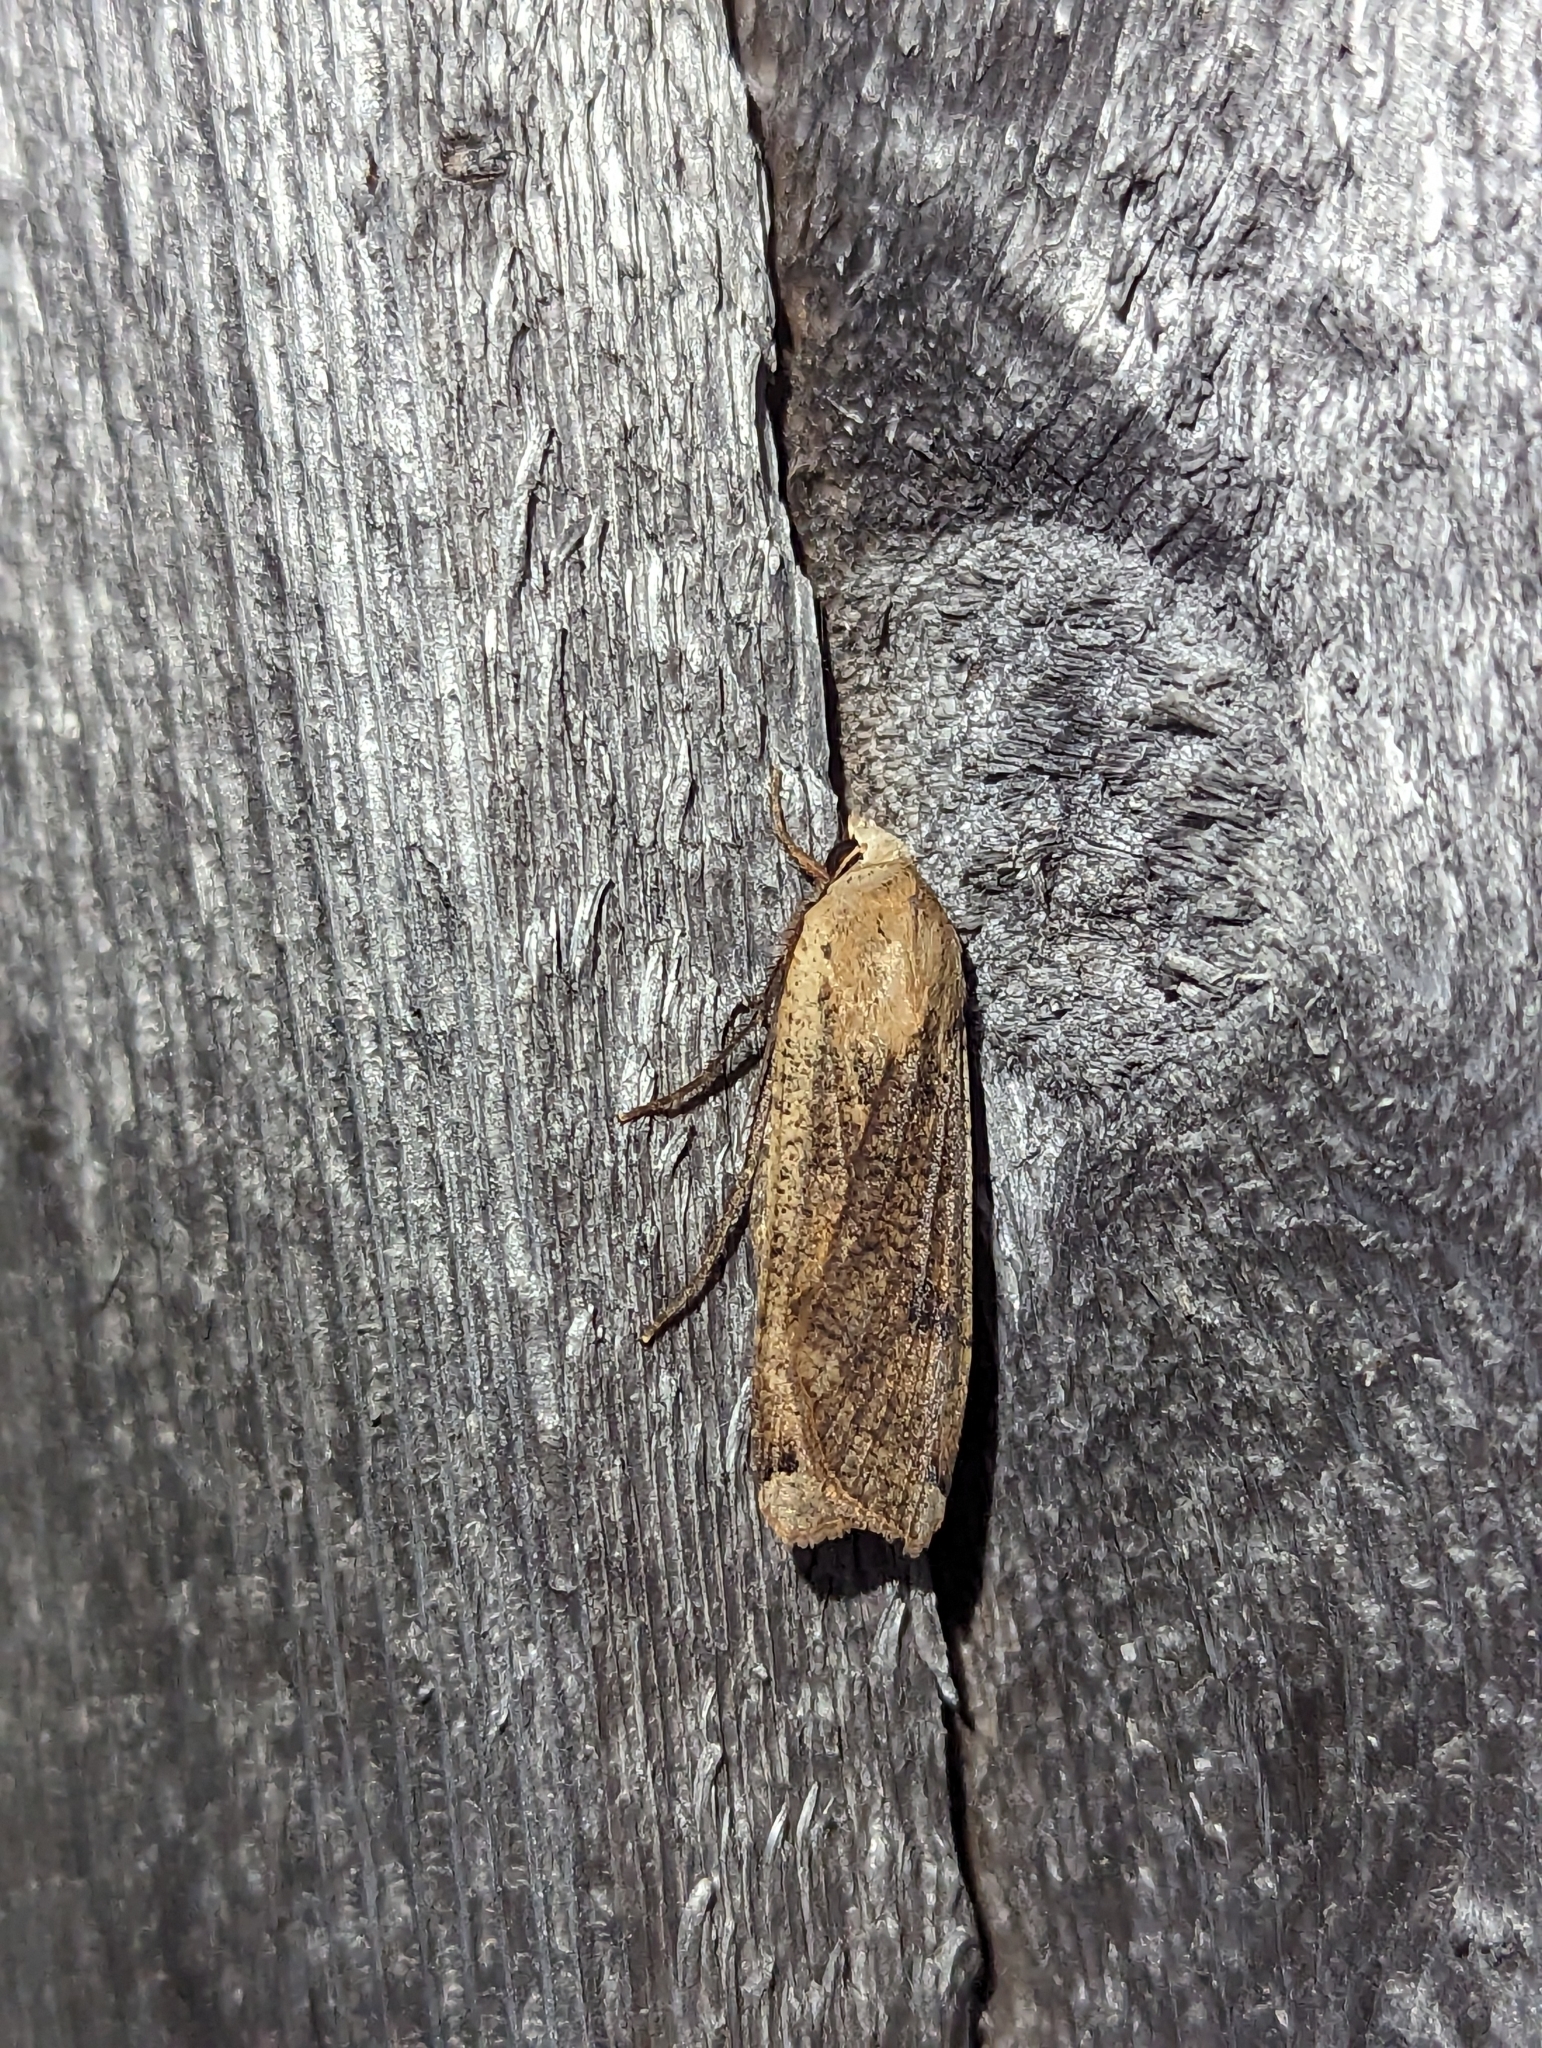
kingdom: Animalia
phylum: Arthropoda
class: Insecta
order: Lepidoptera
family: Noctuidae
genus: Noctua
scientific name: Noctua pronuba
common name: Large yellow underwing
